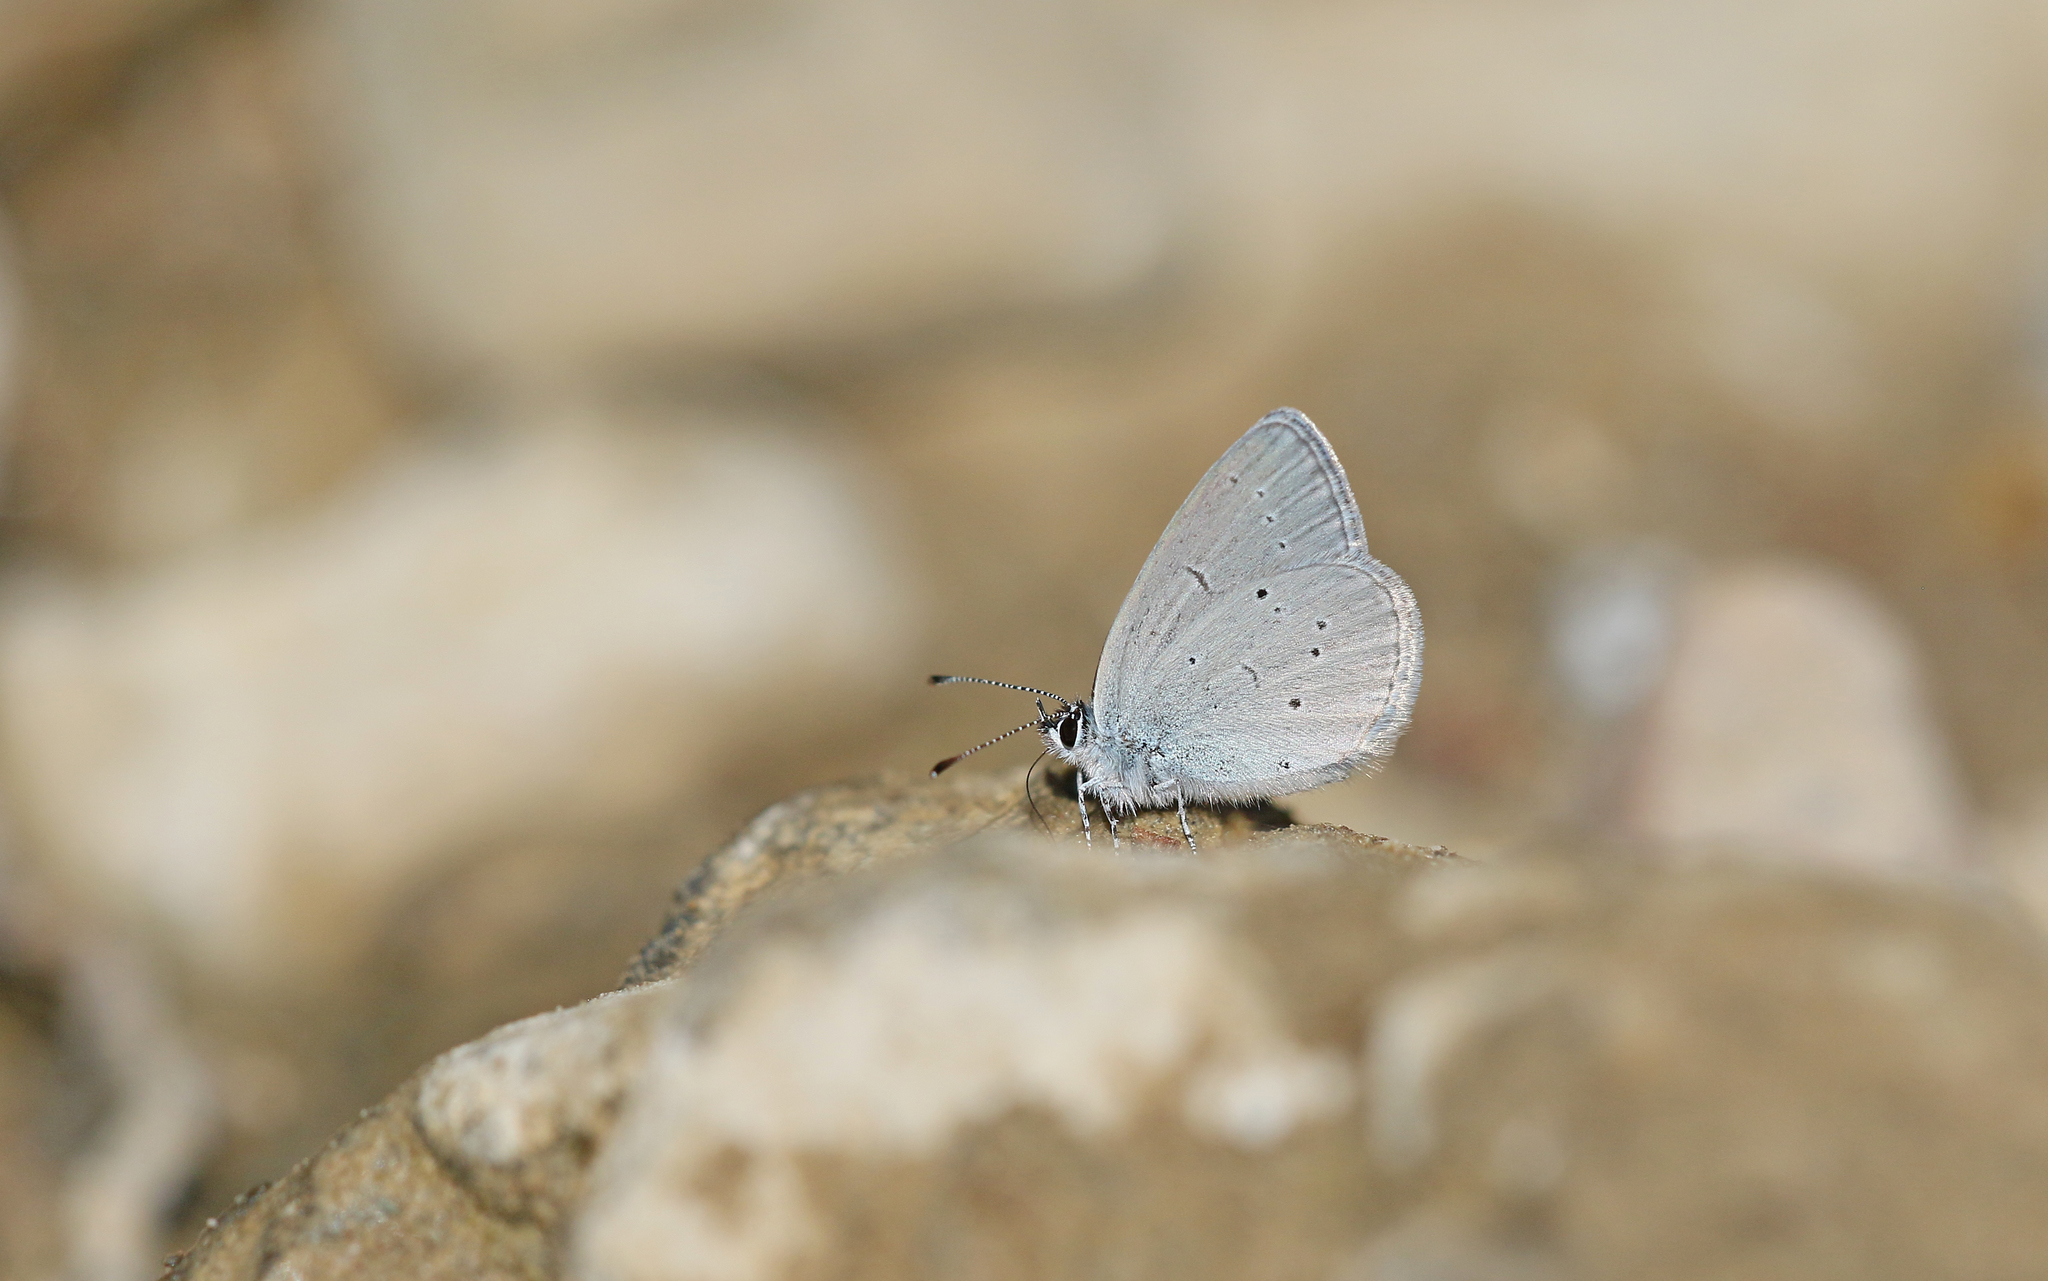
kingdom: Animalia
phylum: Arthropoda
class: Insecta
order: Lepidoptera
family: Lycaenidae
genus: Cupido
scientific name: Cupido lorquinii
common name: Lorquin’s blue
